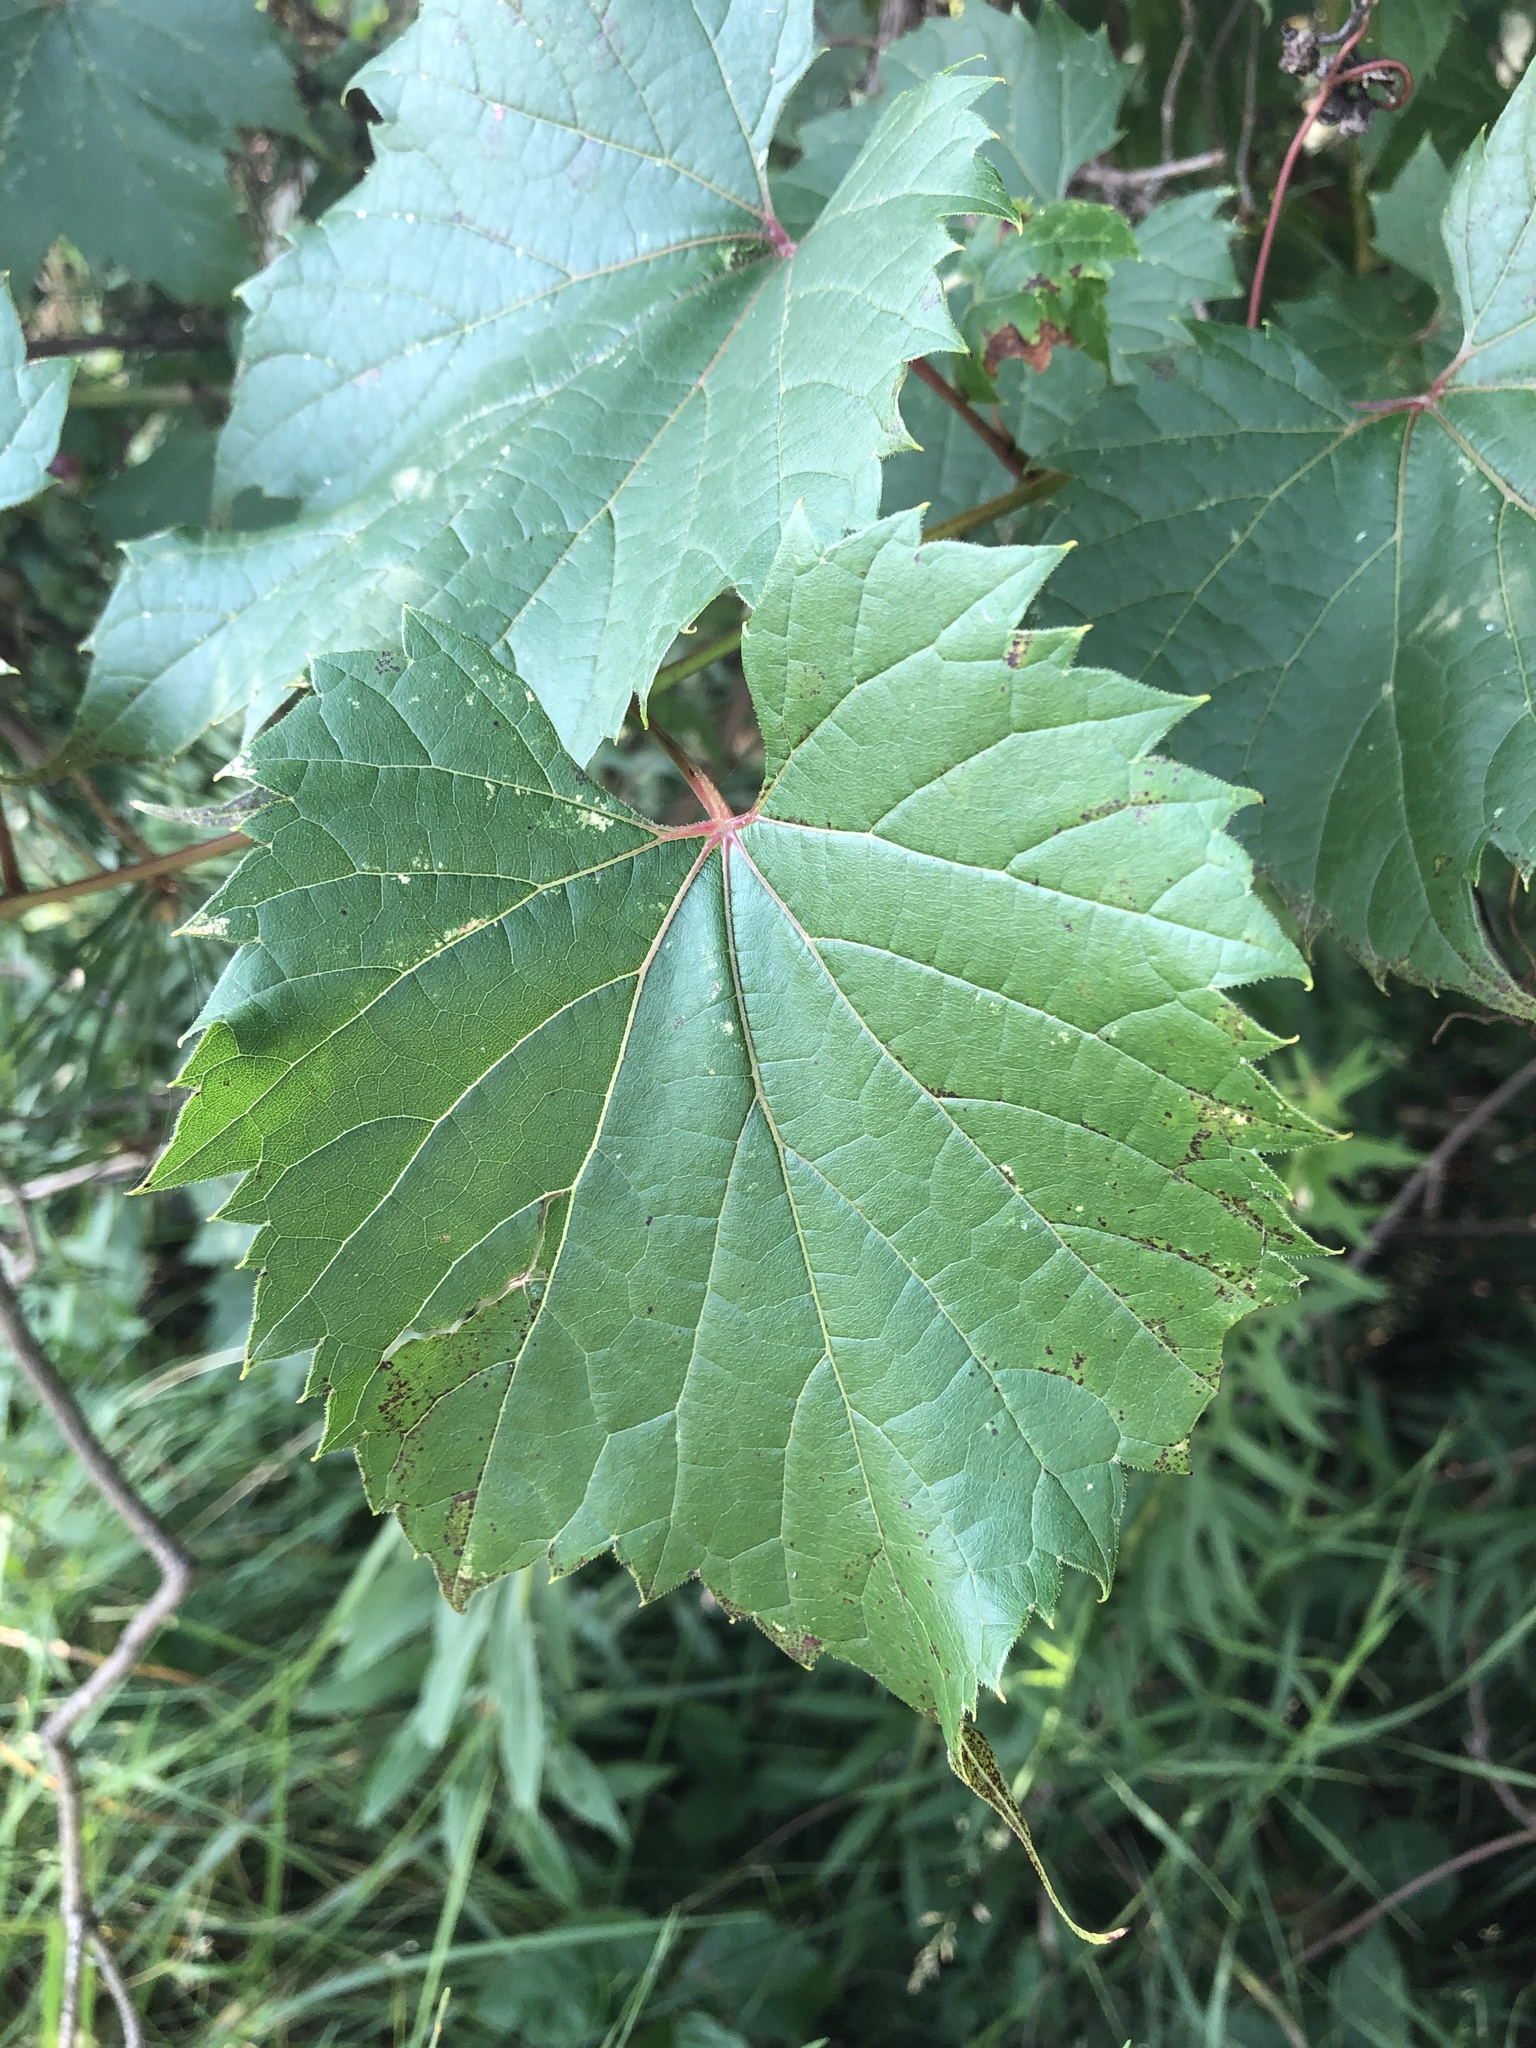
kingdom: Plantae
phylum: Tracheophyta
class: Magnoliopsida
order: Vitales
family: Vitaceae
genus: Vitis
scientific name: Vitis riparia
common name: Frost grape
